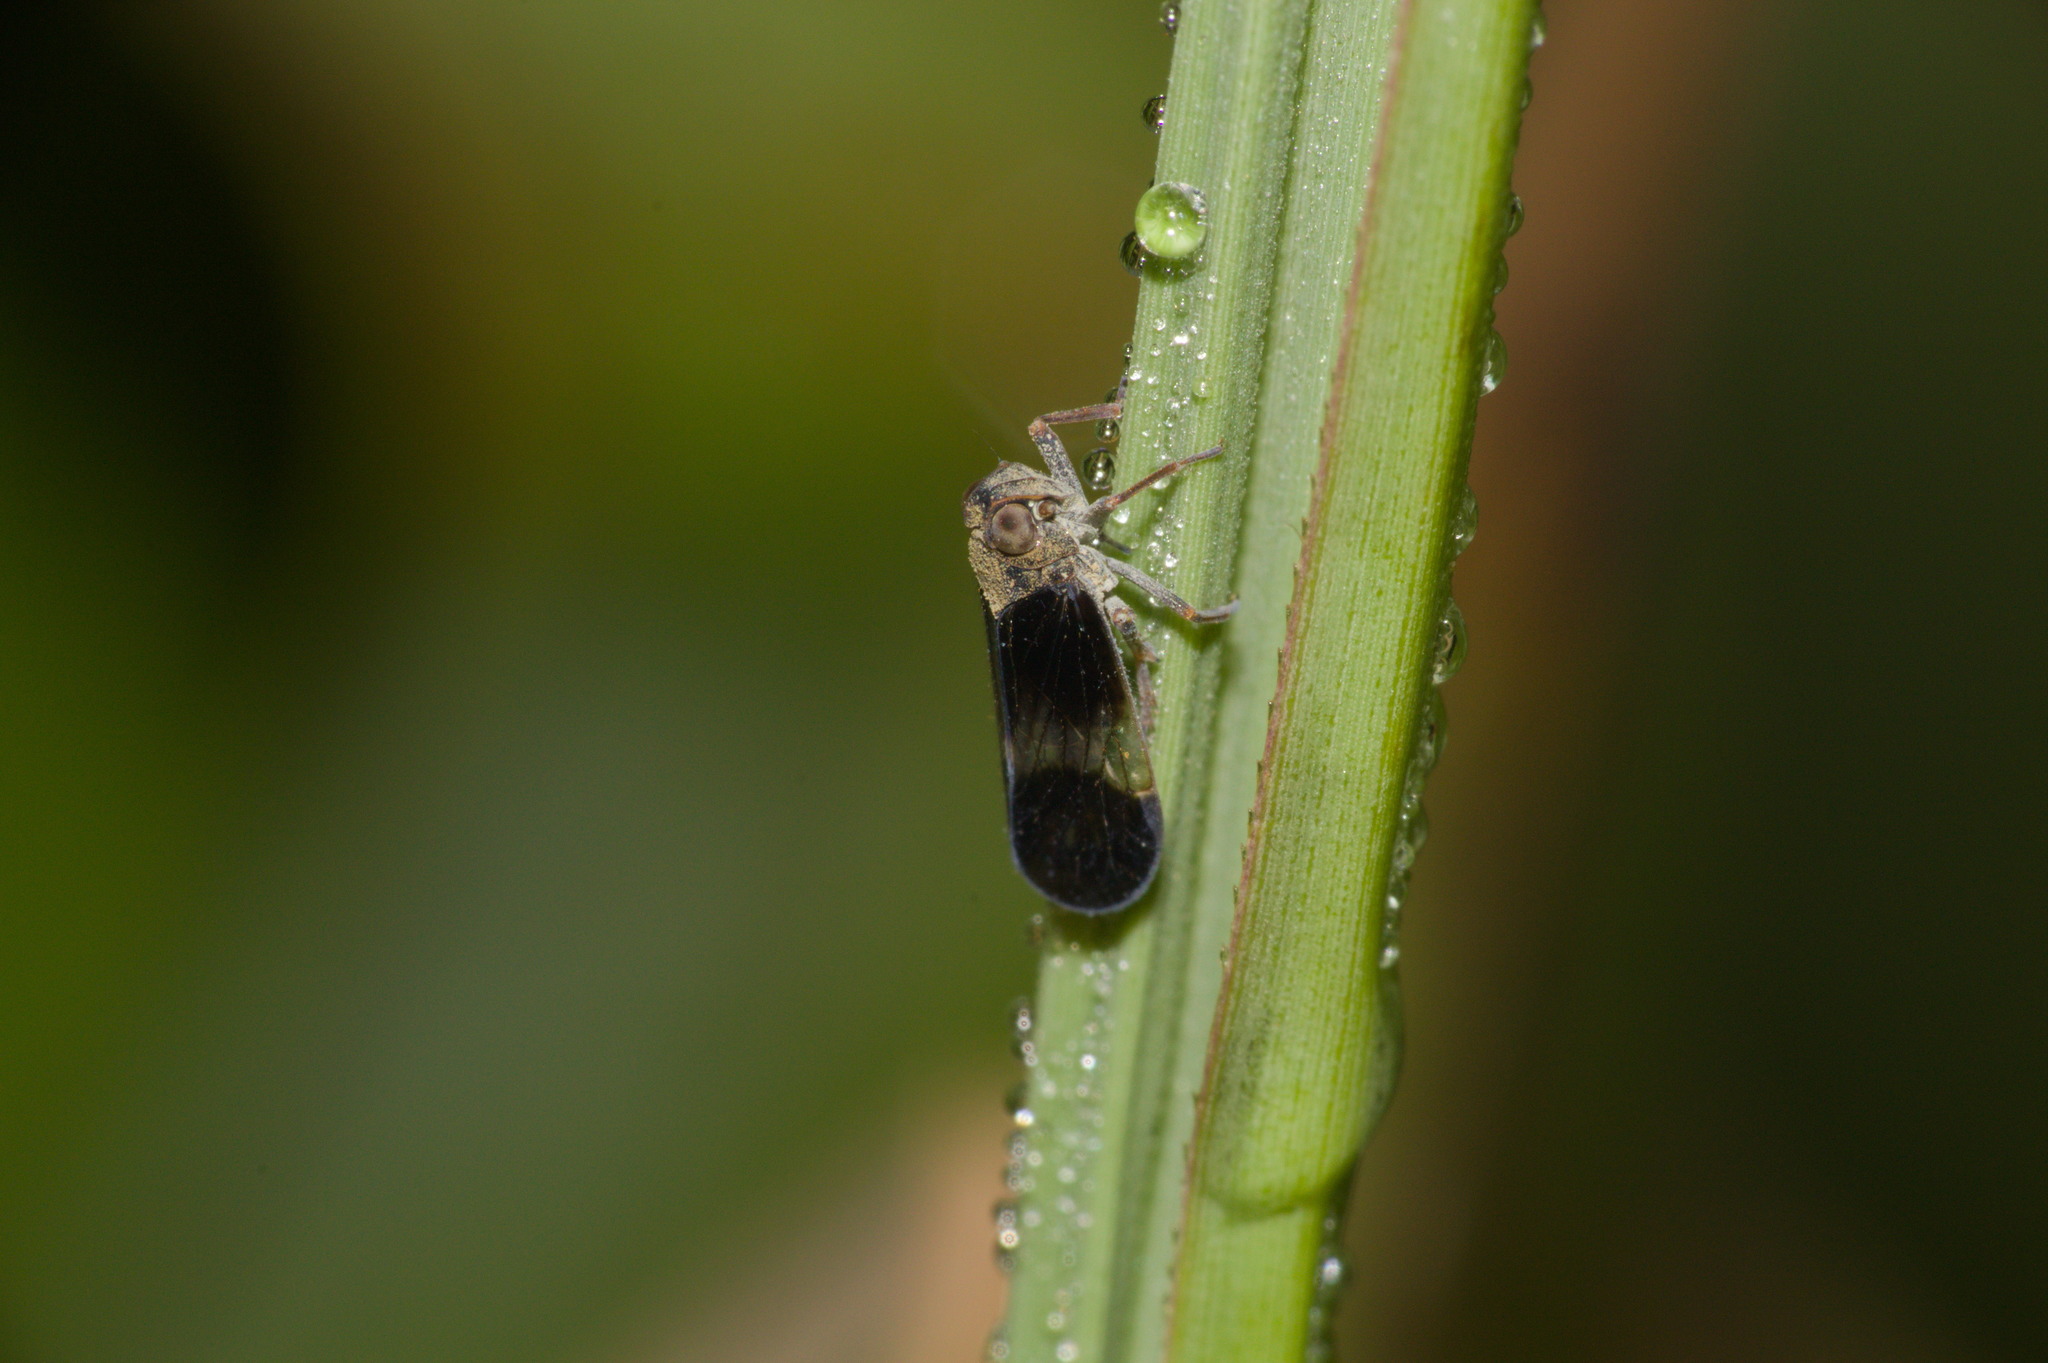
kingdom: Animalia
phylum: Arthropoda
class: Insecta
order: Hemiptera
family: Cixiidae
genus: Melanoliarus
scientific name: Melanoliarus dimidiatus
